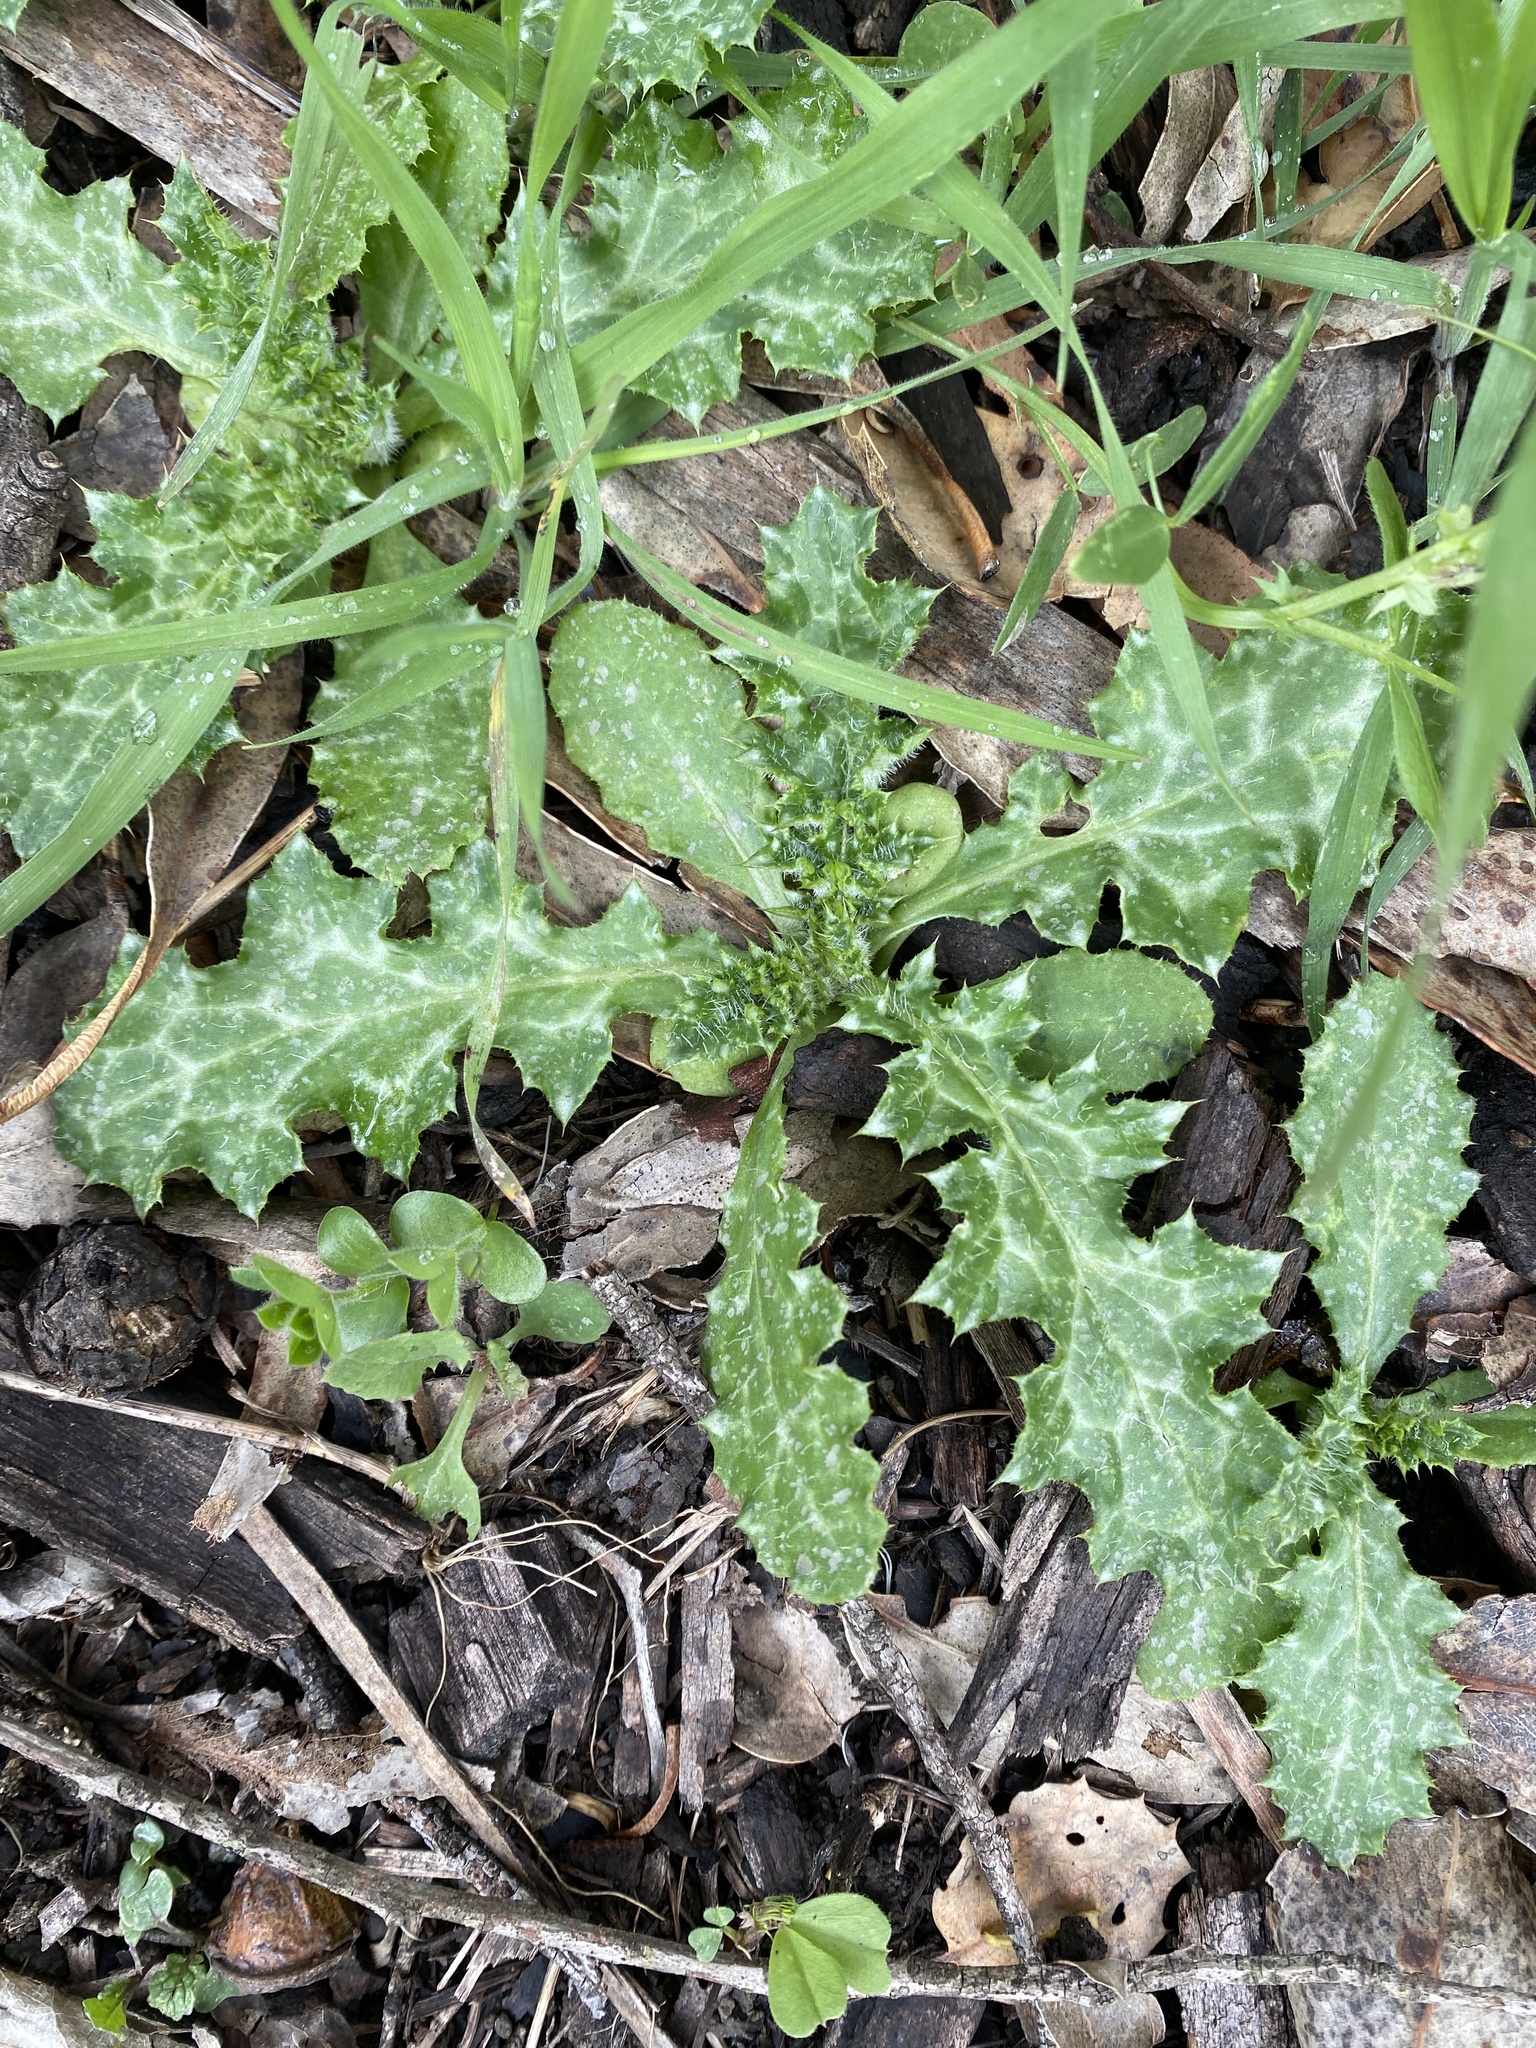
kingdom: Plantae
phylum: Tracheophyta
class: Magnoliopsida
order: Asterales
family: Asteraceae
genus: Carduus
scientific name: Carduus pycnocephalus
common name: Plymouth thistle
